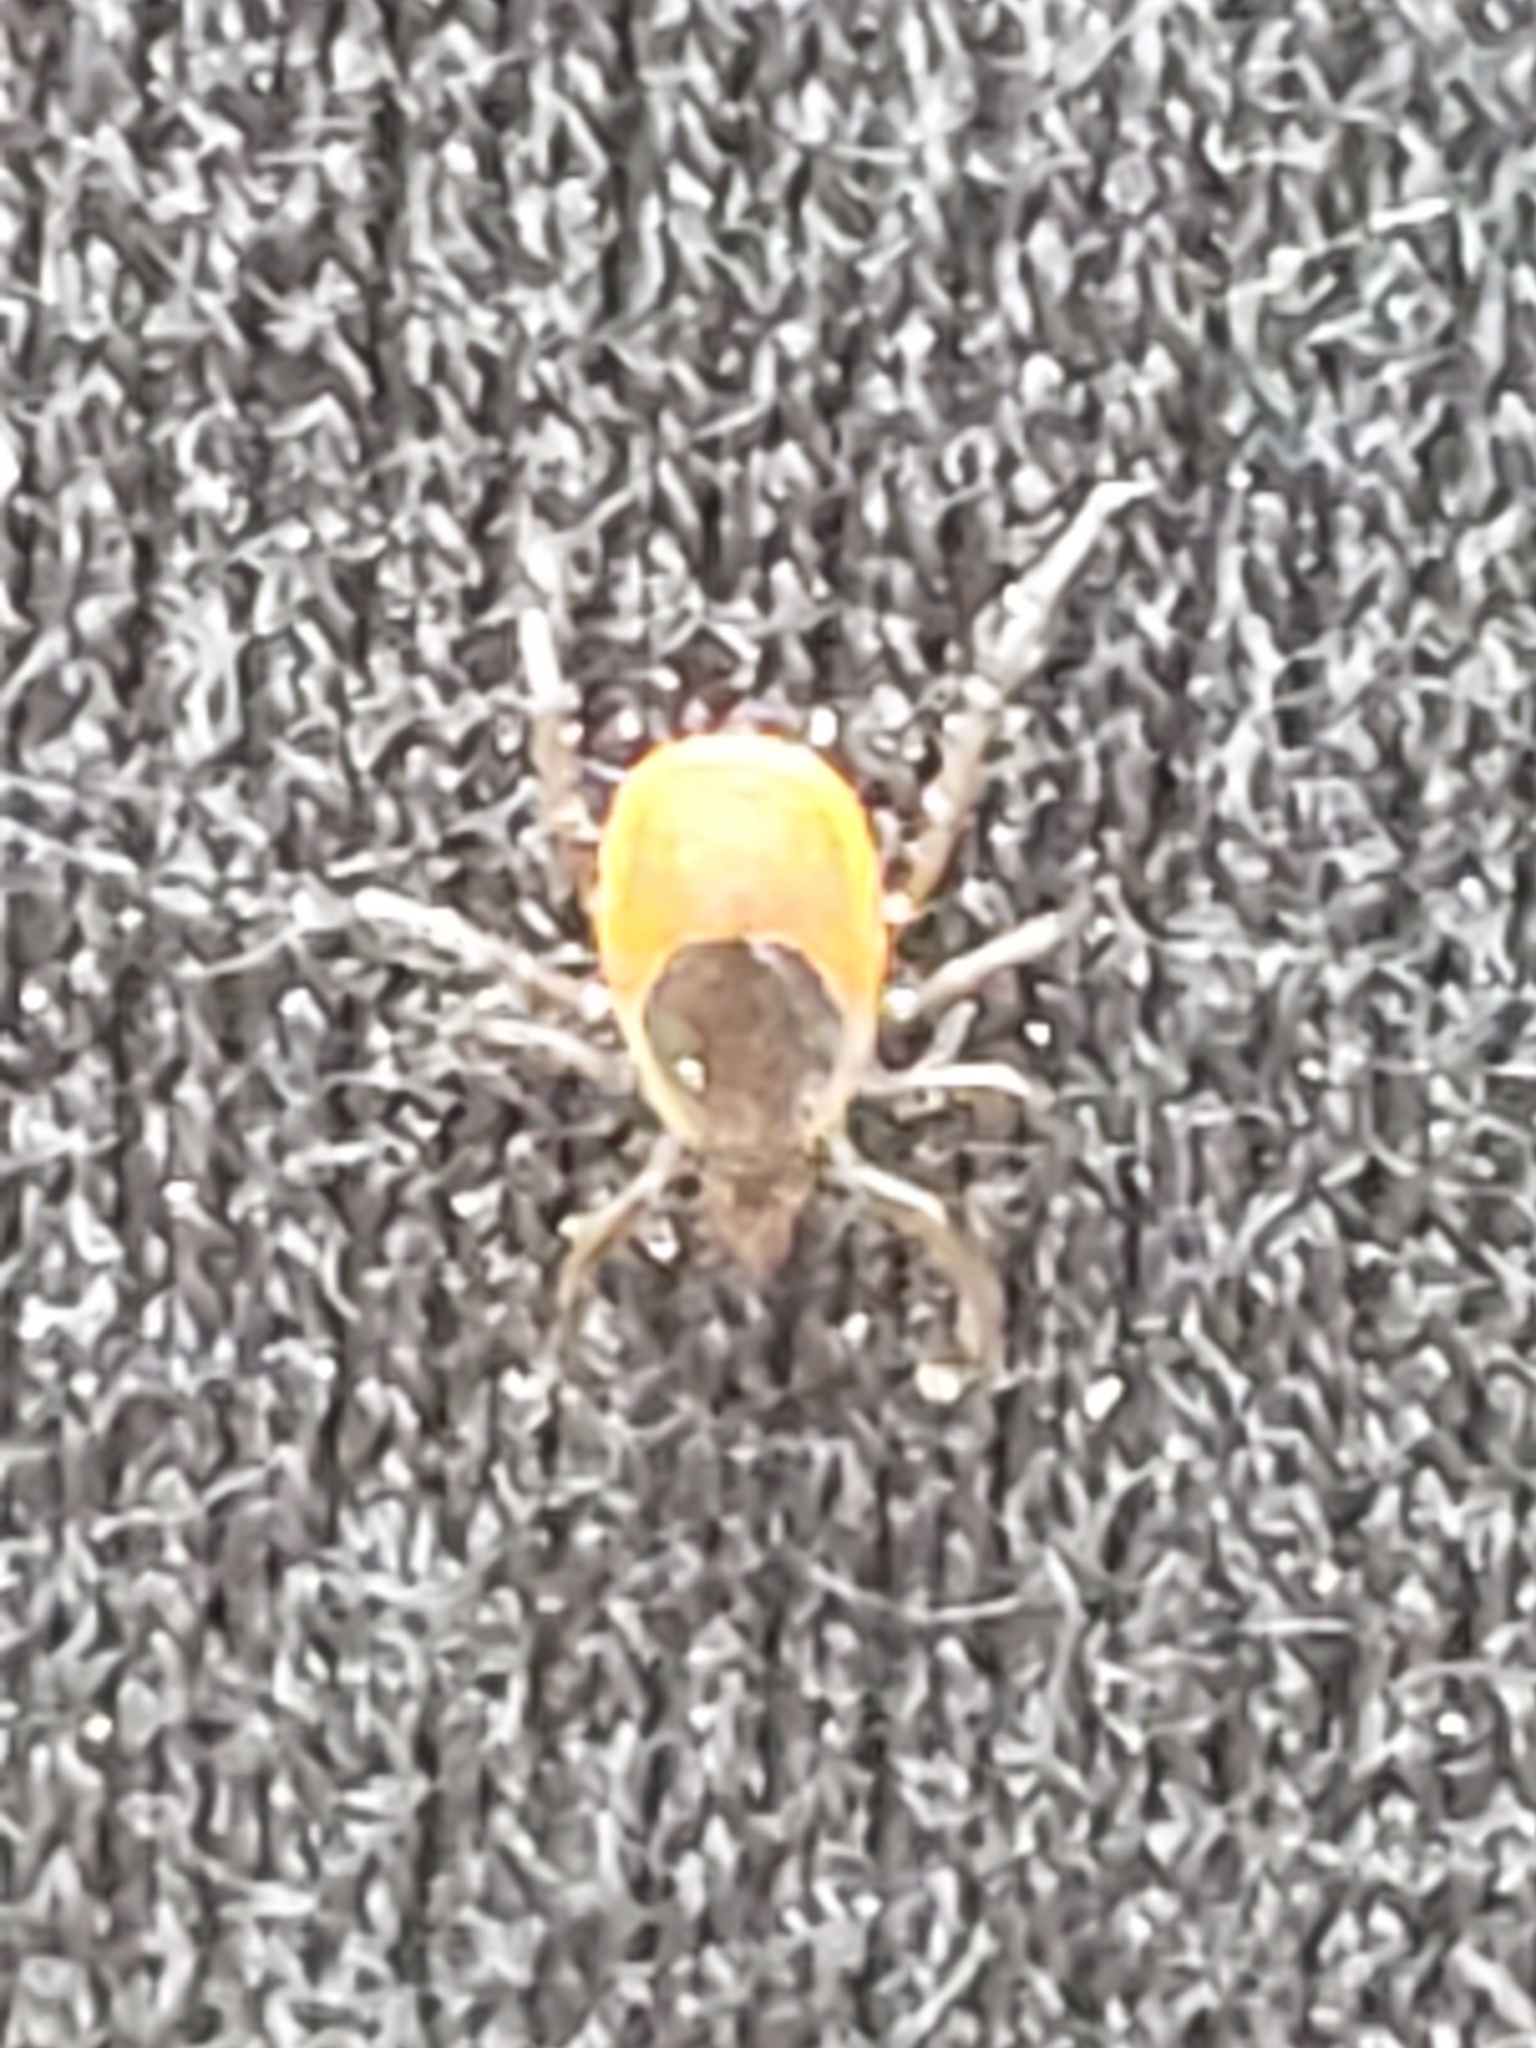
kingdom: Animalia
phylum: Arthropoda
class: Arachnida
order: Ixodida
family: Ixodidae
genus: Ixodes
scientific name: Ixodes scapularis
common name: Black legged tick
